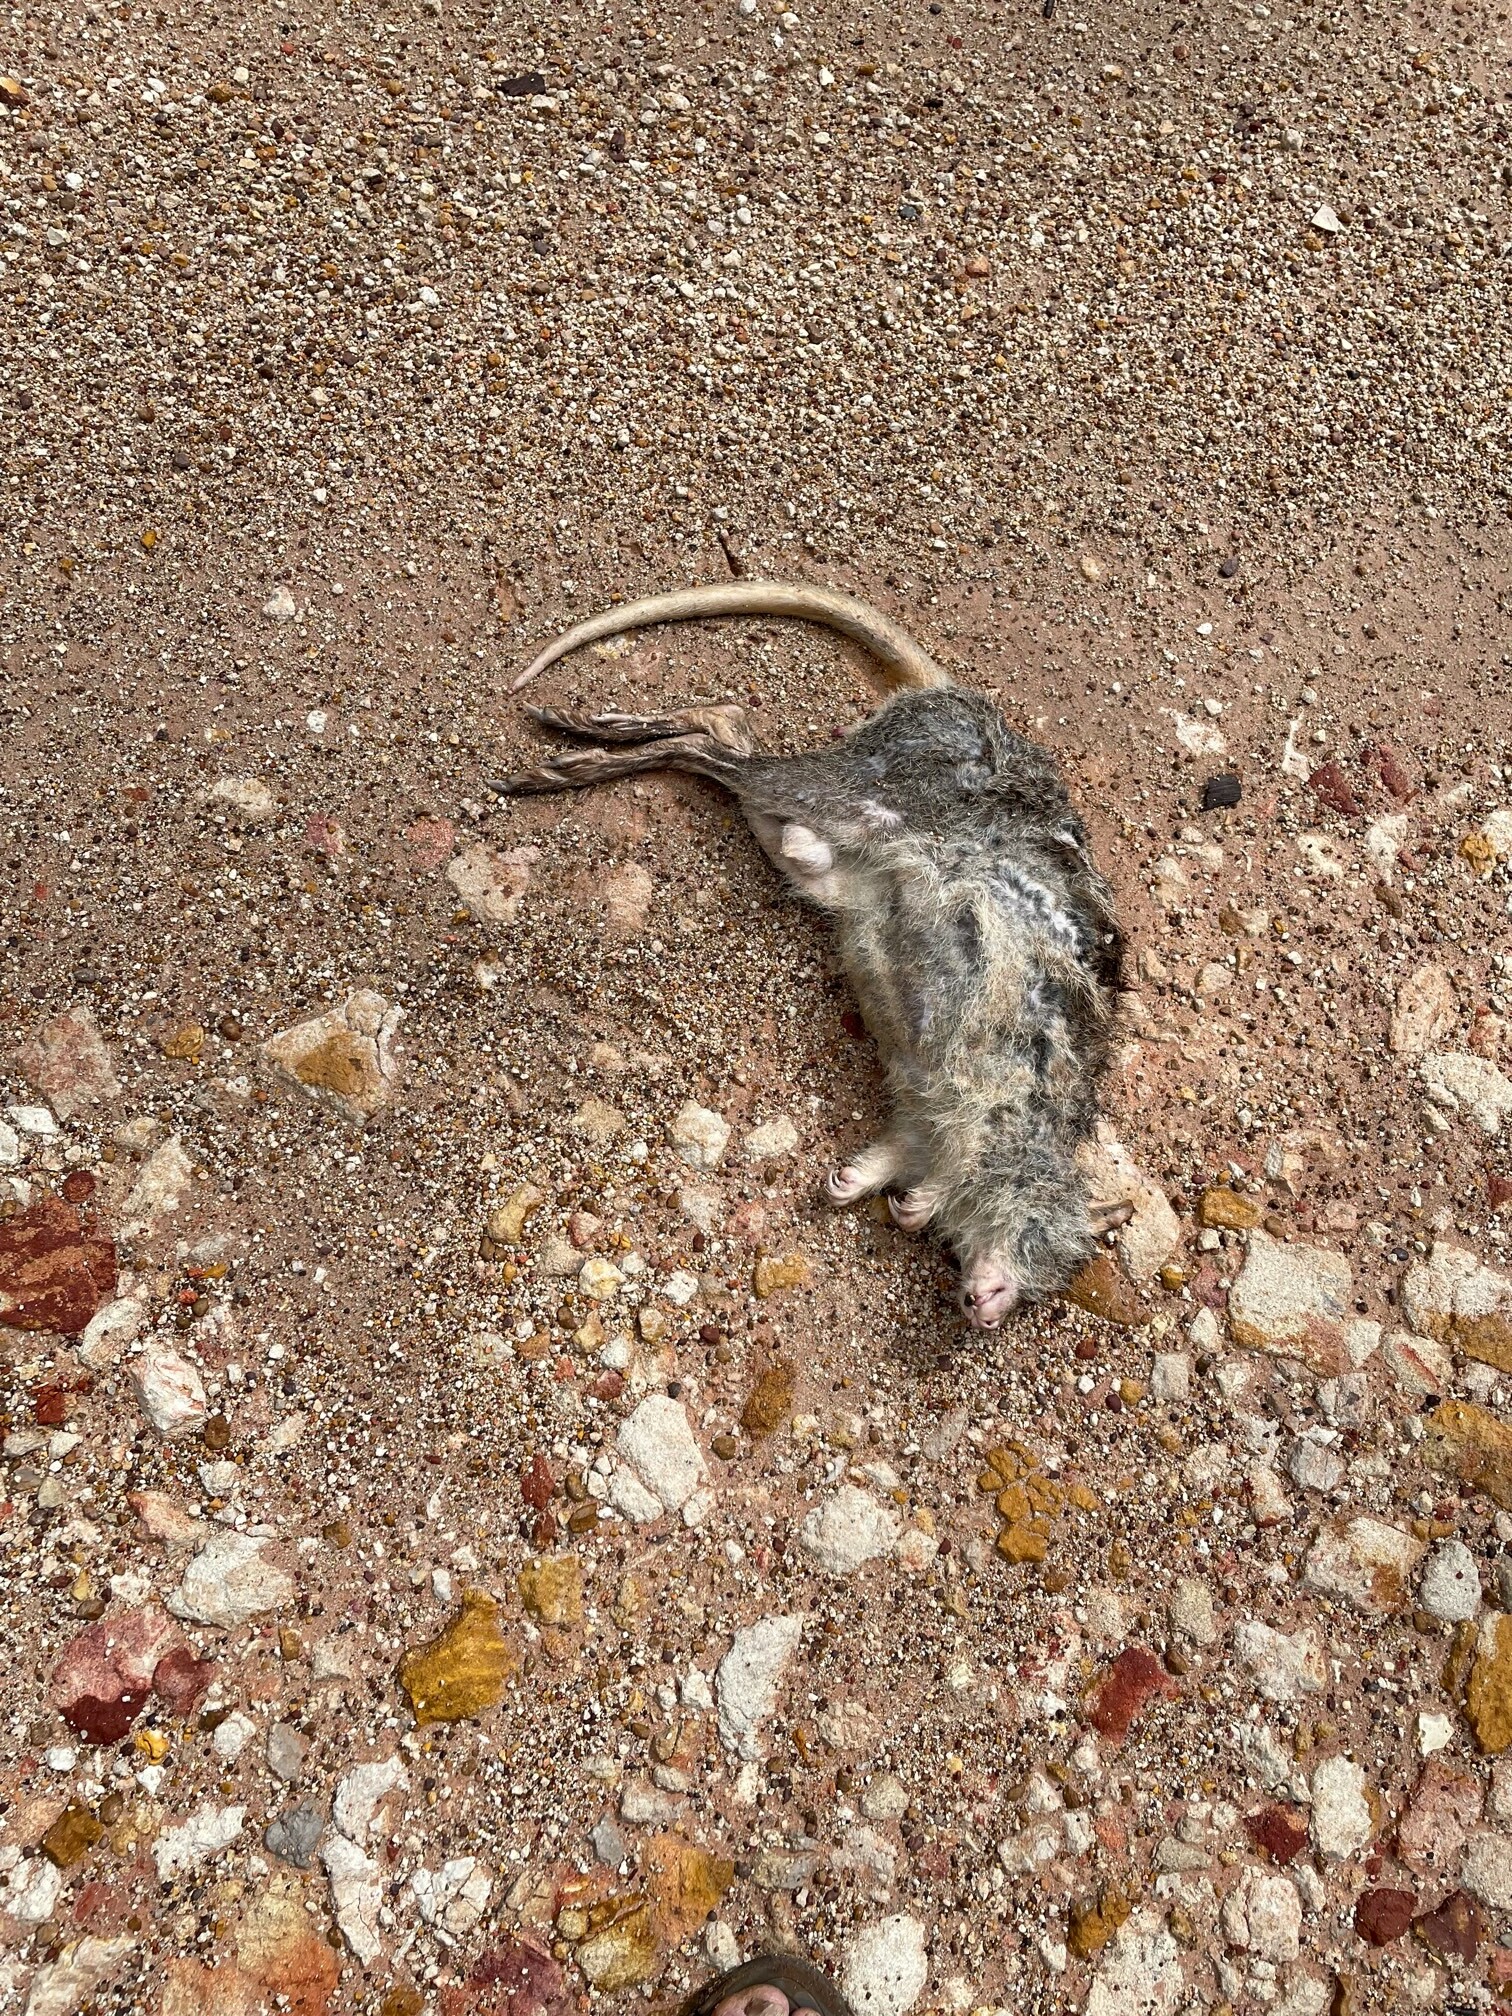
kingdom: Animalia
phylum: Chordata
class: Mammalia
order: Diprotodontia
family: Potoroidae
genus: Aepyprymnus
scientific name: Aepyprymnus rufescens
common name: Rufous rat-kangaroo
